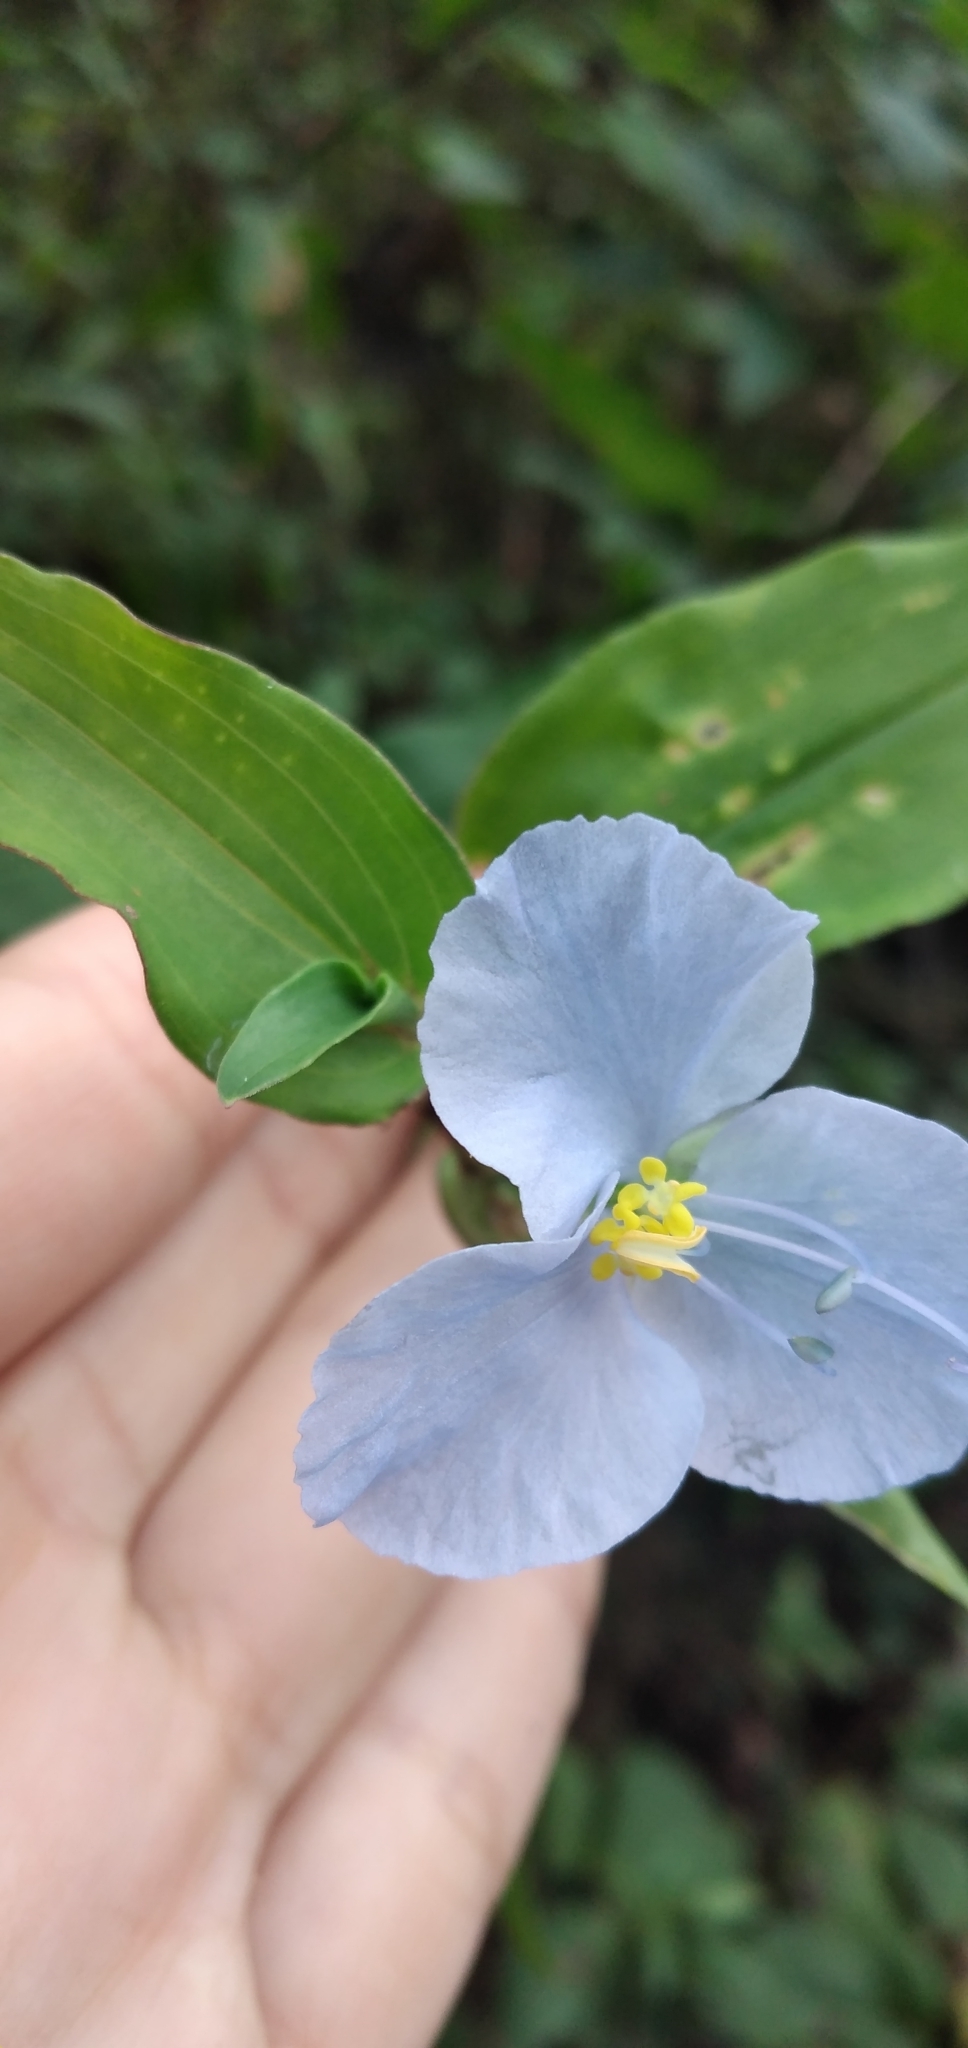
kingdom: Plantae
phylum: Tracheophyta
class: Liliopsida
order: Commelinales
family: Commelinaceae
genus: Commelina
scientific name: Commelina tuberosa
